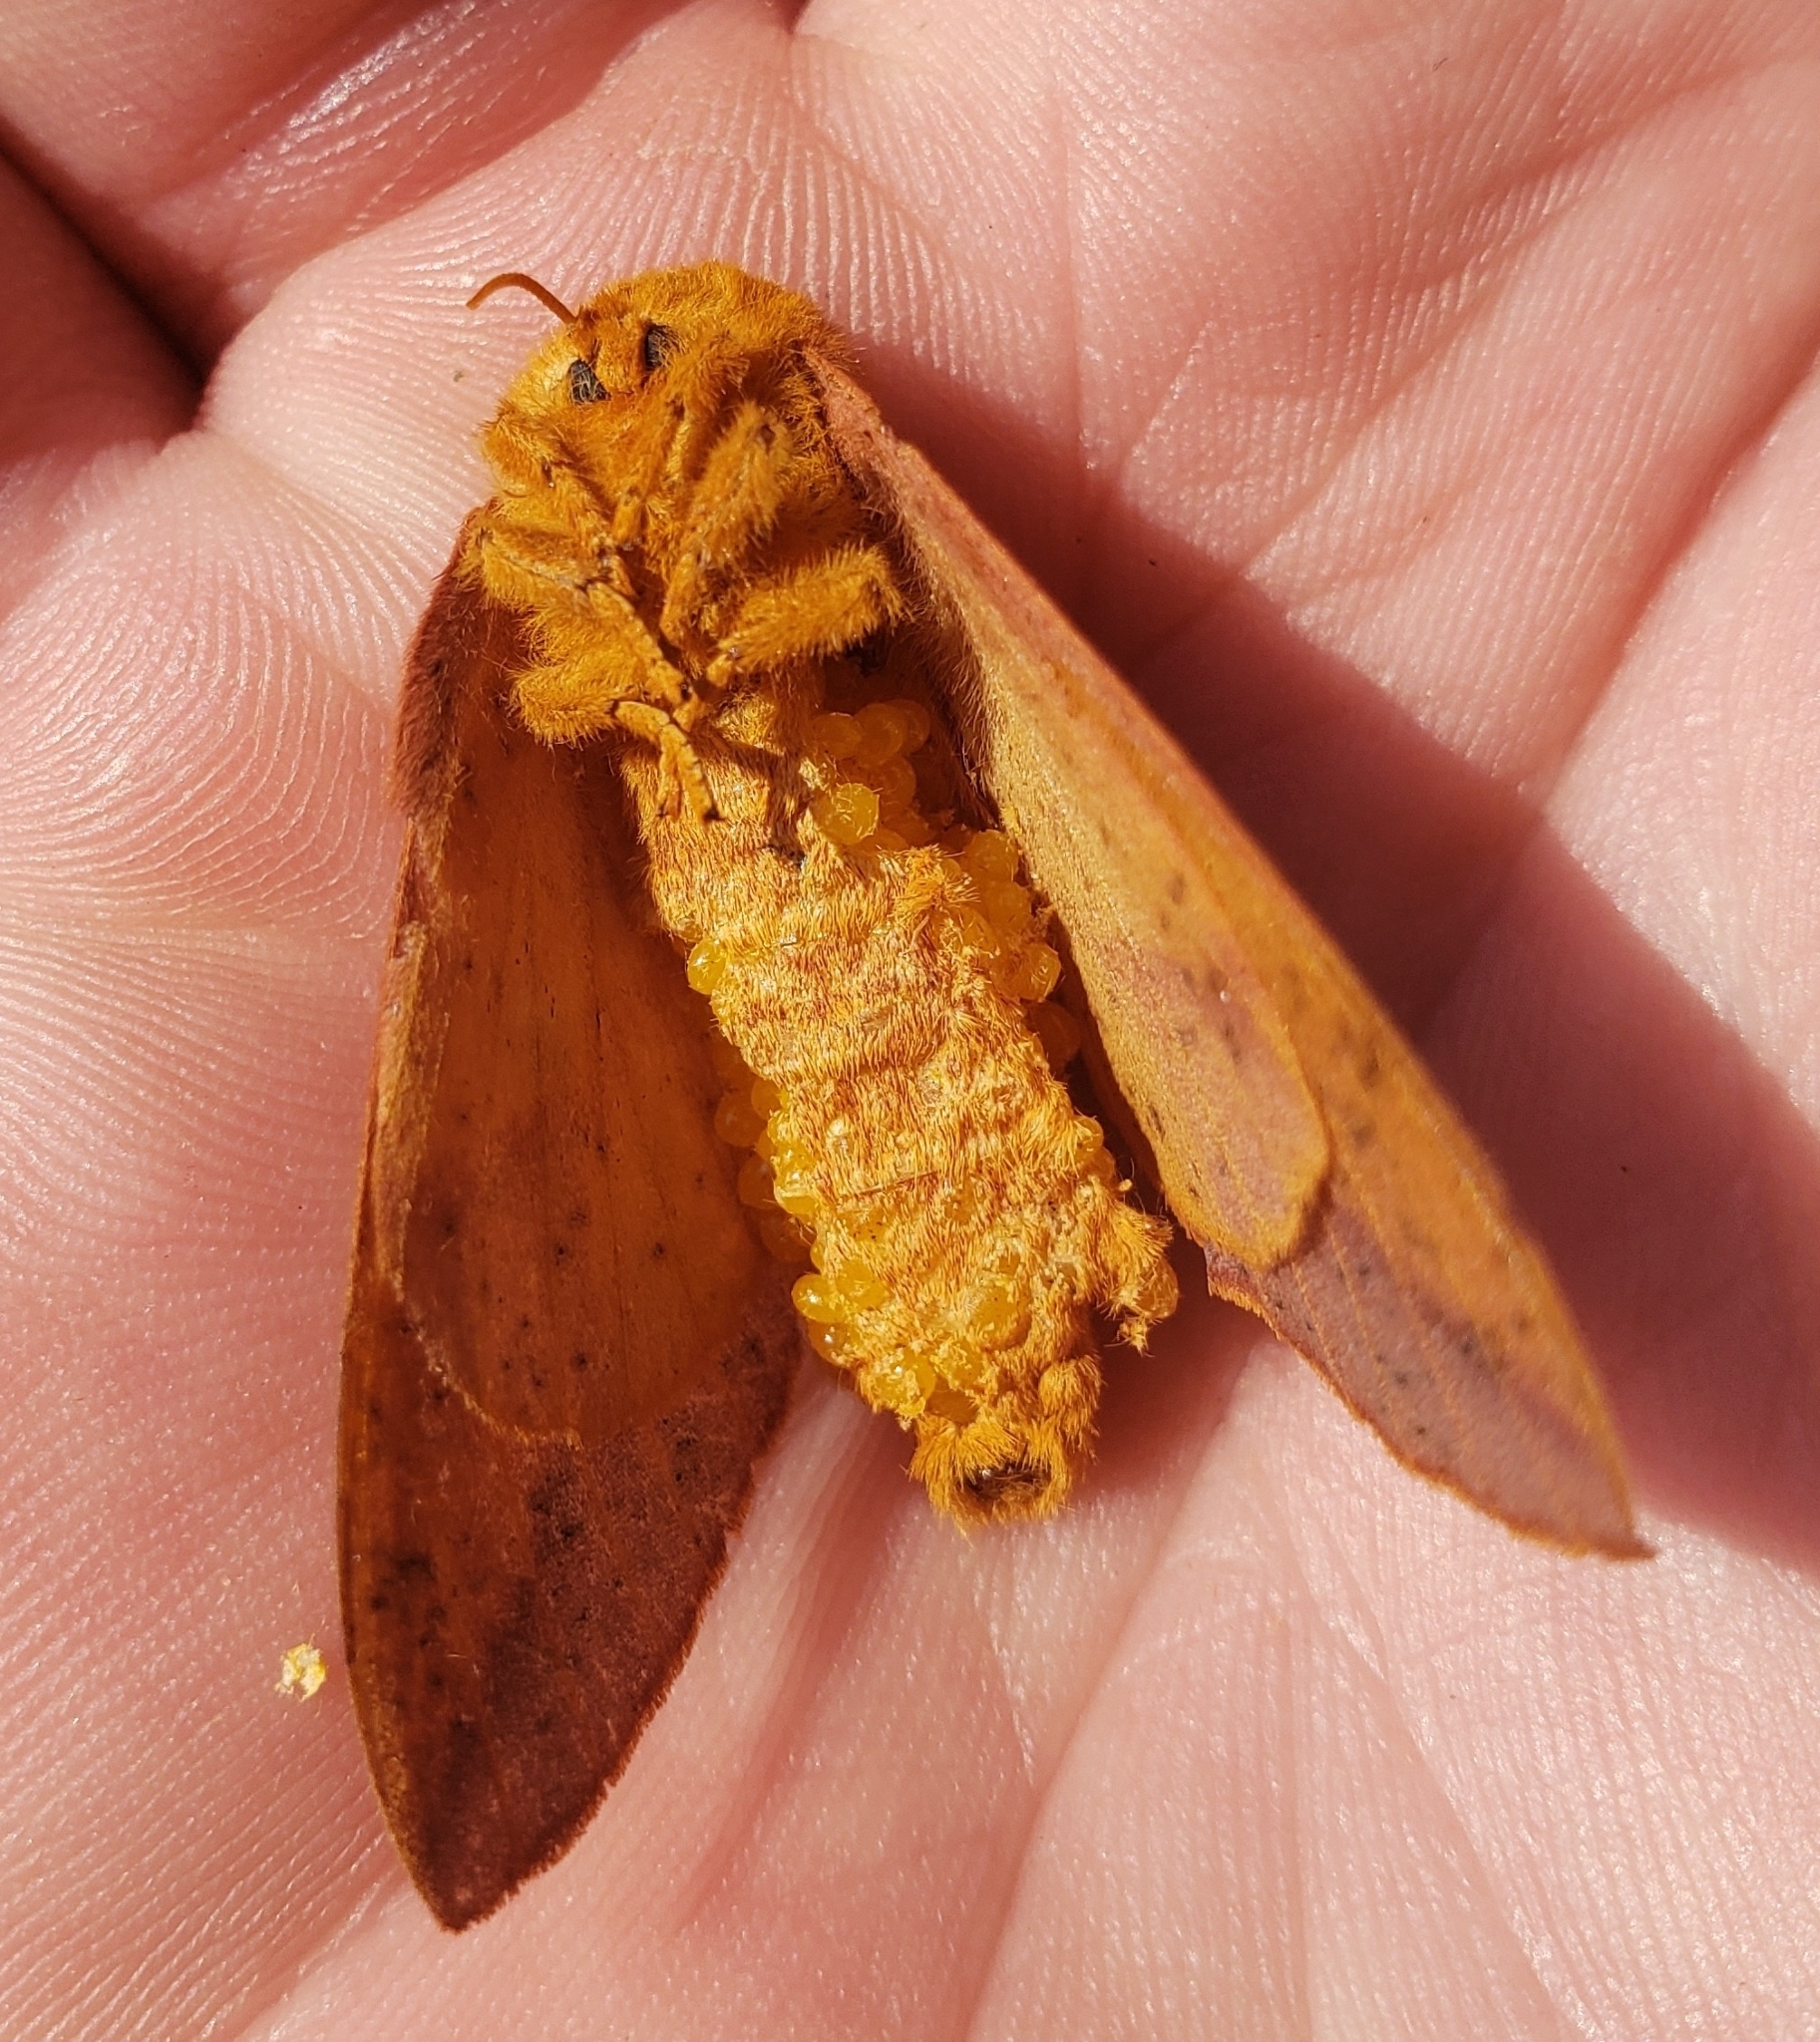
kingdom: Animalia
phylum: Arthropoda
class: Insecta
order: Lepidoptera
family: Saturniidae
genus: Anisota
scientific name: Anisota senatoria
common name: Orange-striped oakworm moth
